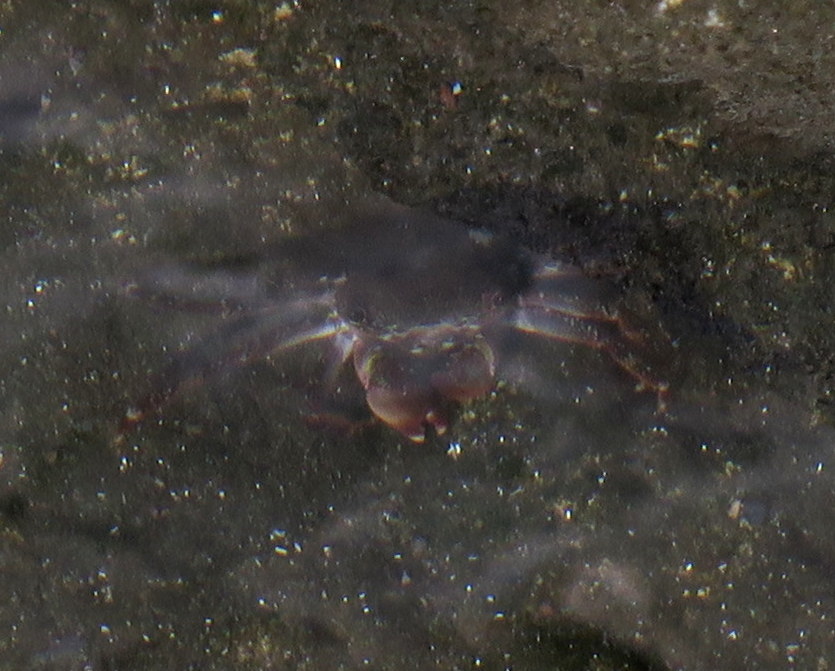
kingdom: Animalia
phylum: Arthropoda
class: Malacostraca
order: Decapoda
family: Grapsidae
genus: Grapsus
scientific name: Grapsus adscensionis
